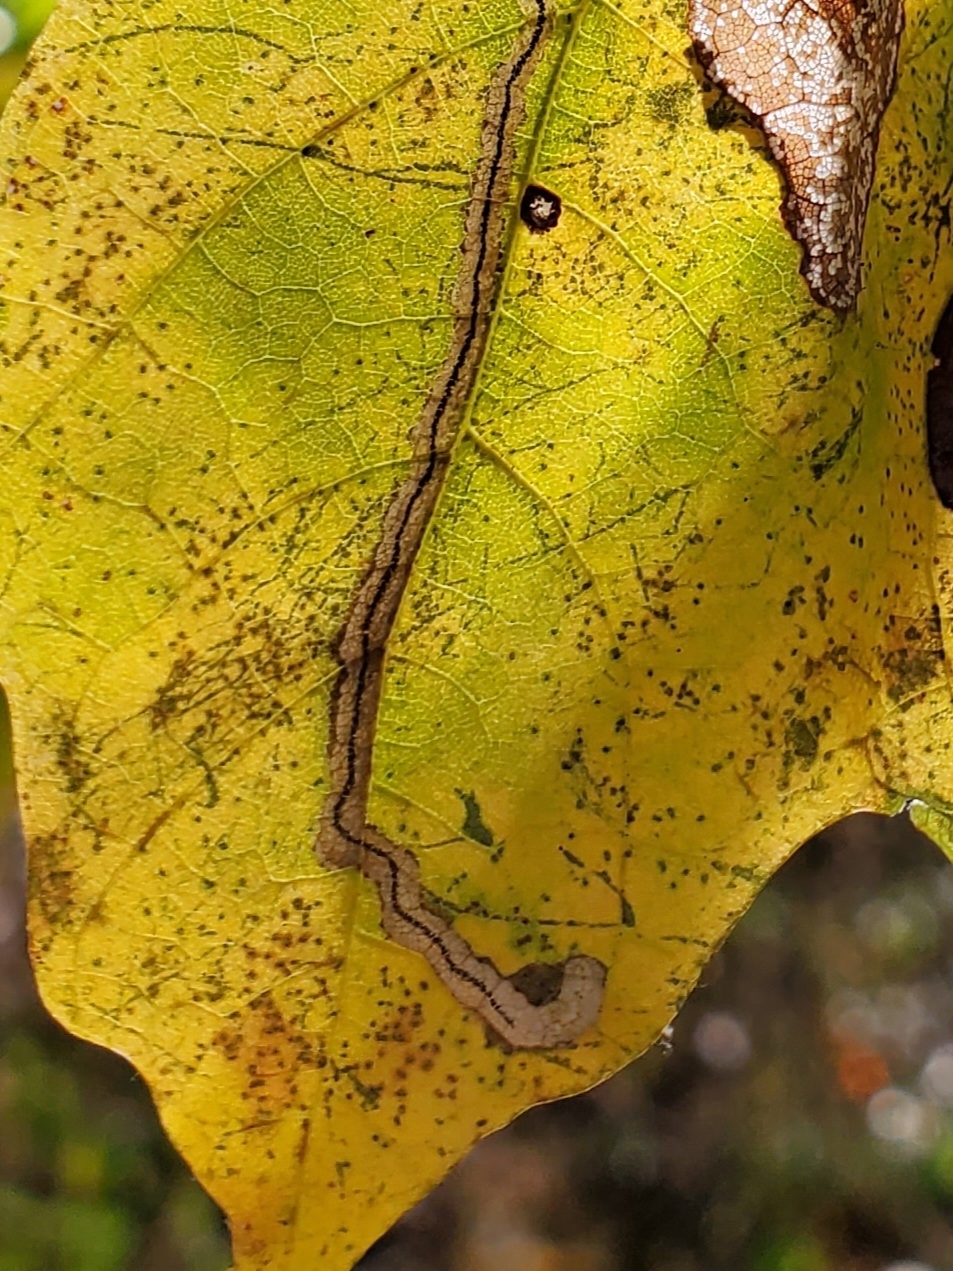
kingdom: Animalia
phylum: Arthropoda
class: Insecta
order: Lepidoptera
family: Nepticulidae
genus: Glaucolepis
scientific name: Glaucolepis saccharella
